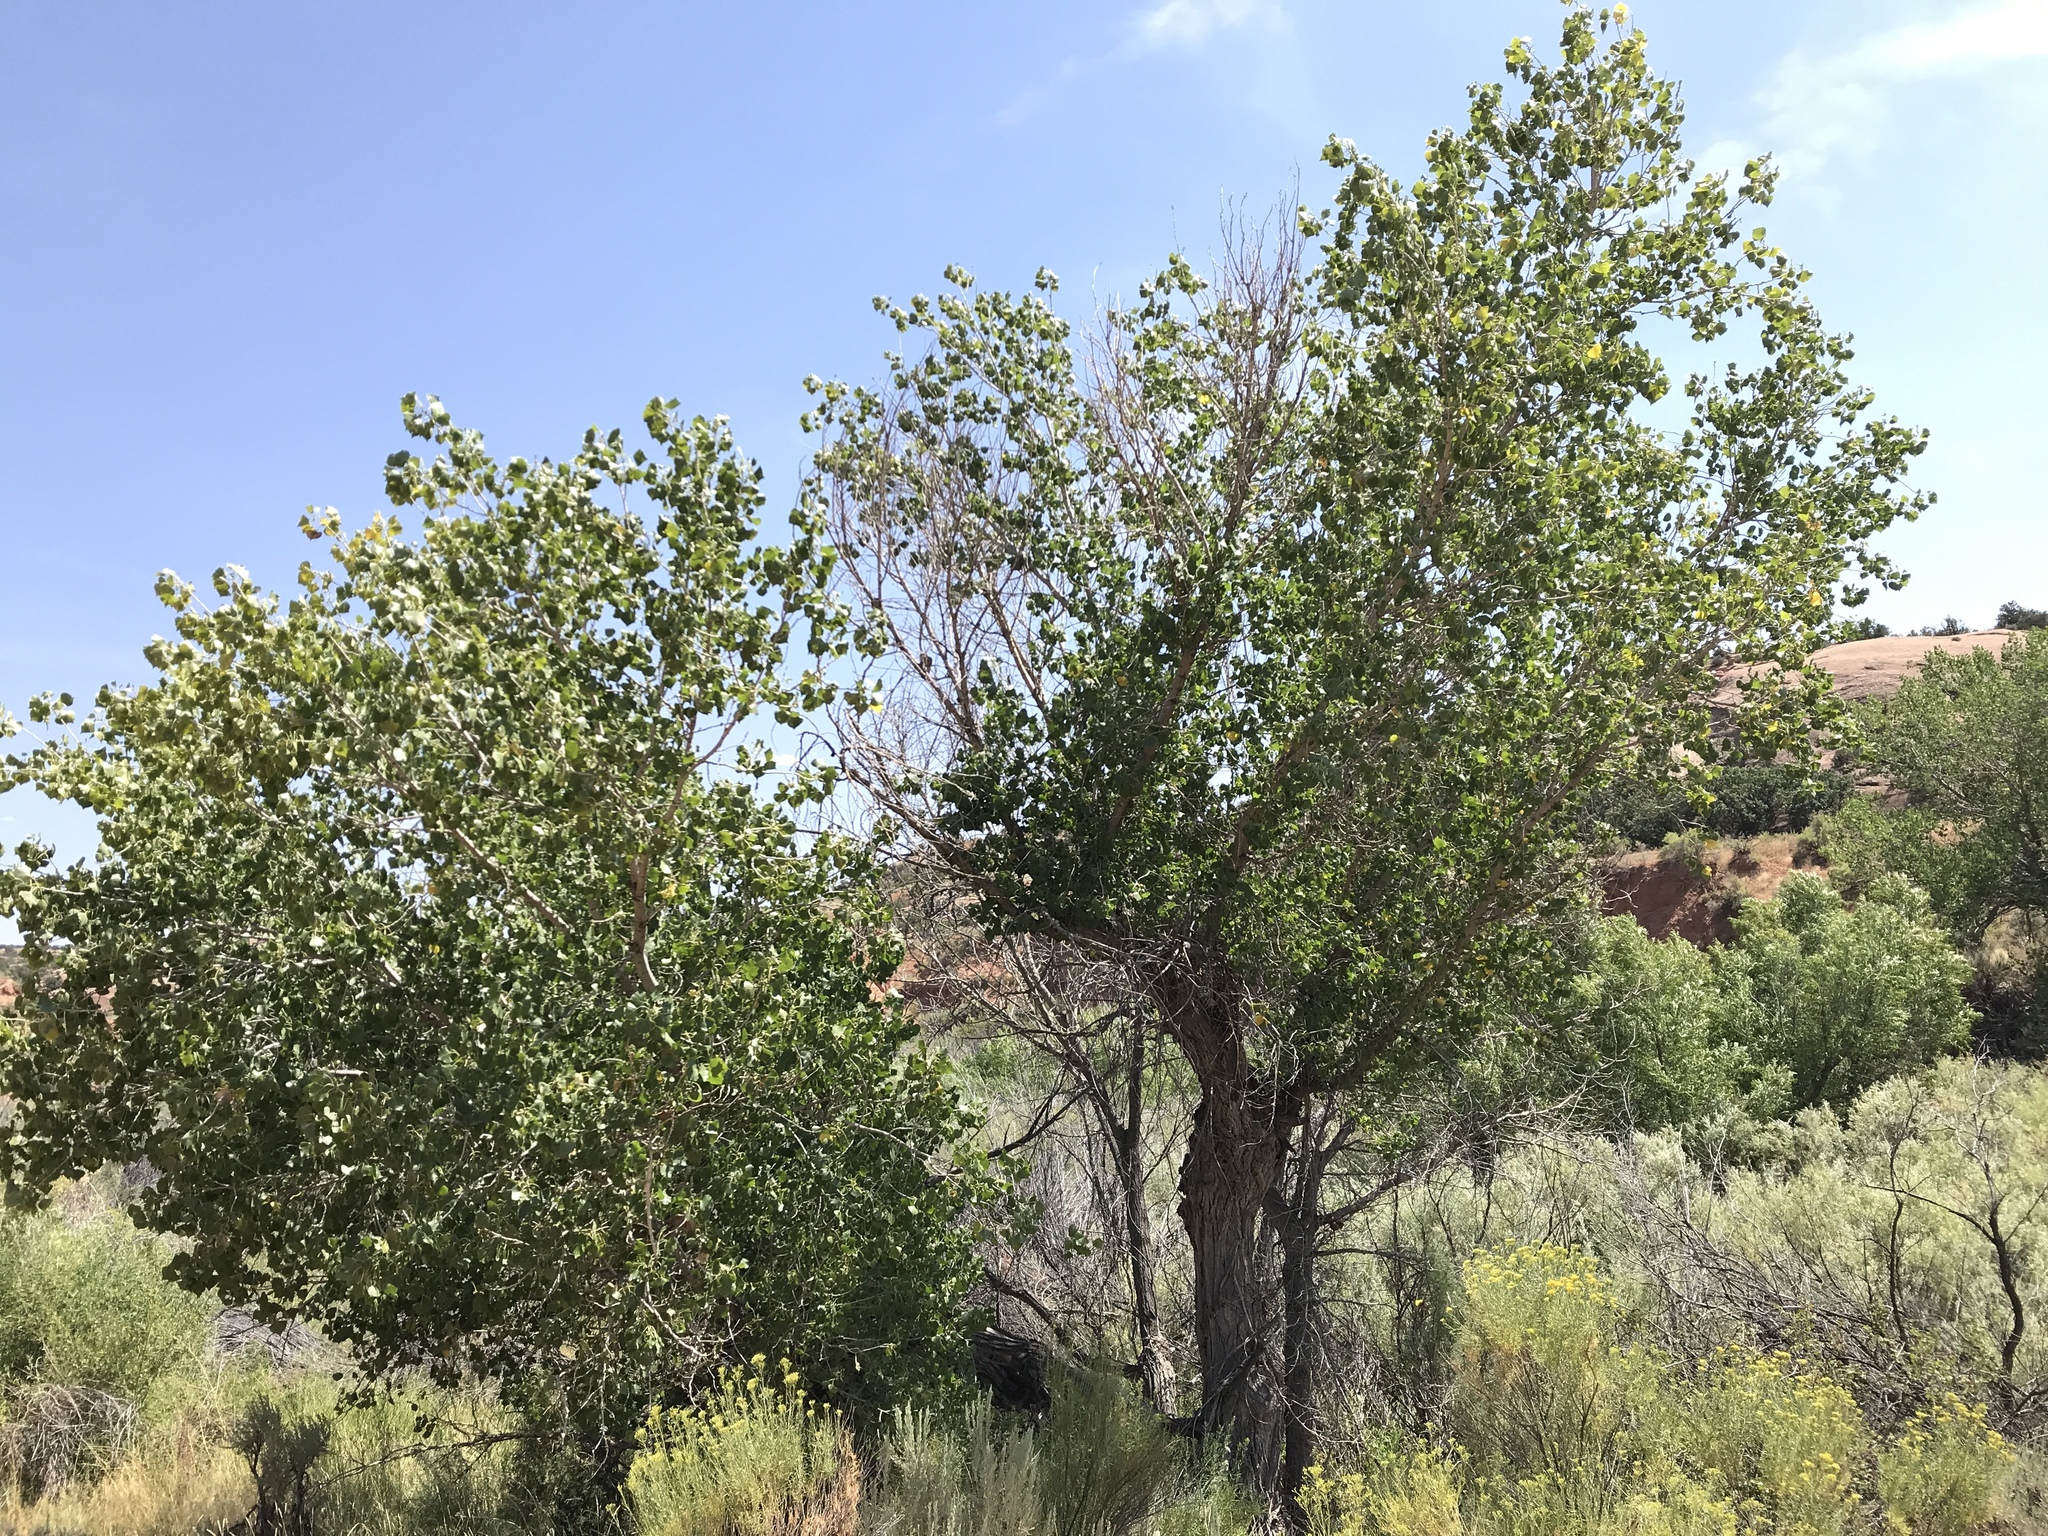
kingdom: Plantae
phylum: Tracheophyta
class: Magnoliopsida
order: Malpighiales
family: Salicaceae
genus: Populus
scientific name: Populus deltoides
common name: Eastern cottonwood
